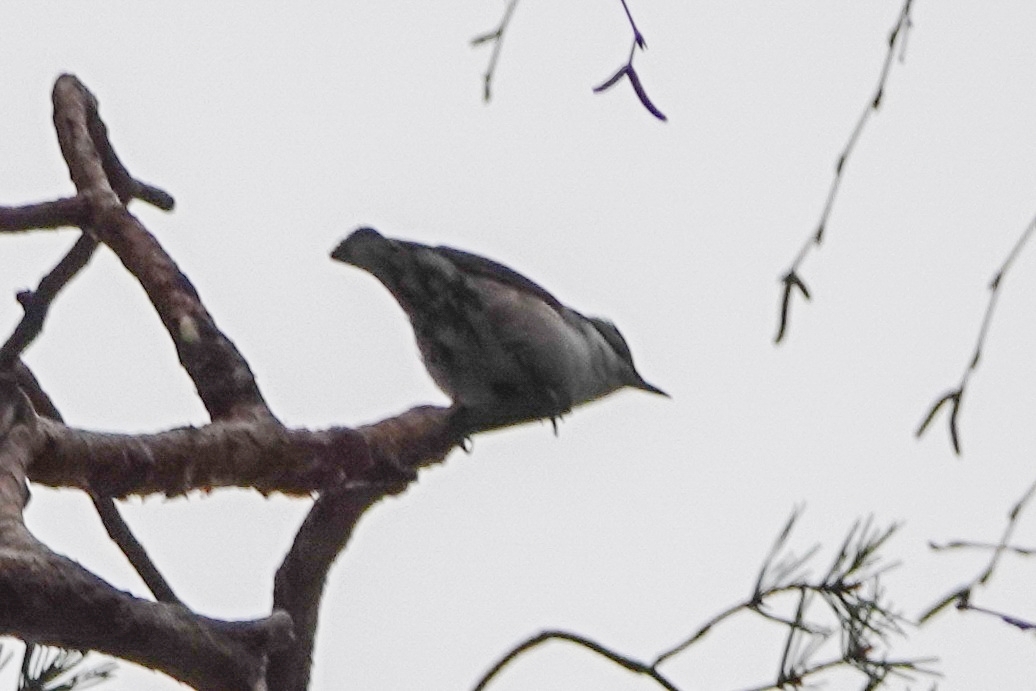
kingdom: Animalia
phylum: Chordata
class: Aves
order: Passeriformes
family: Sittidae
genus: Sitta
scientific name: Sitta europaea
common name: Eurasian nuthatch
